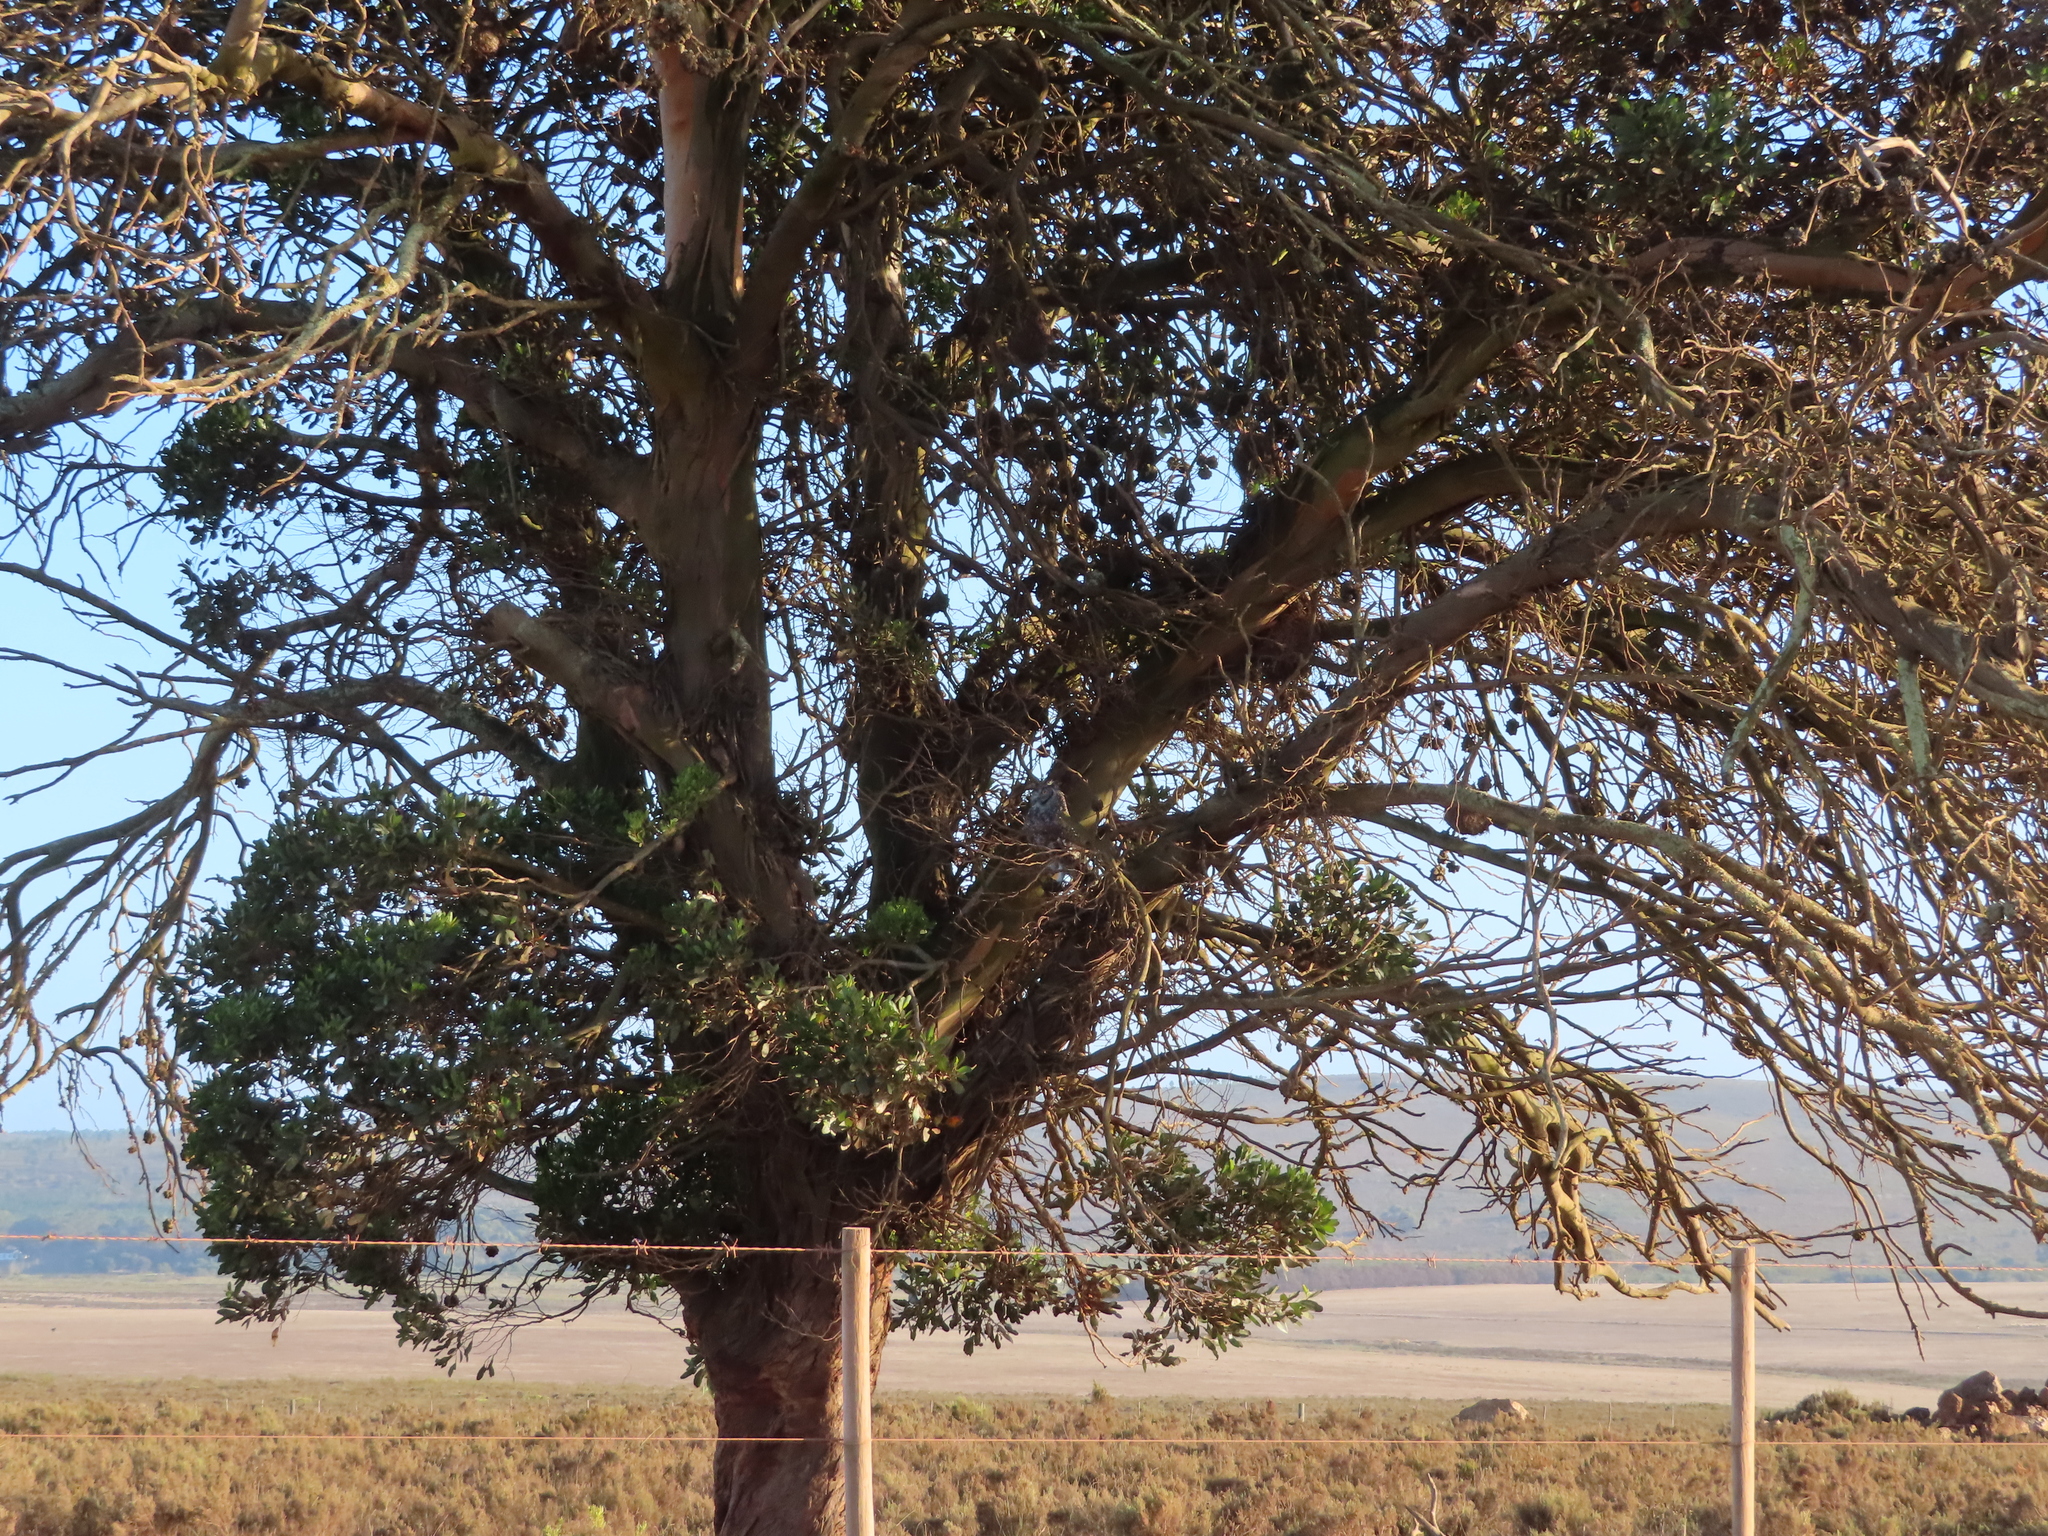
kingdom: Animalia
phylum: Chordata
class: Mammalia
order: Rodentia
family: Muridae
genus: Rhabdomys
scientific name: Rhabdomys pumilio
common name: Xeric four-striped grass rat
